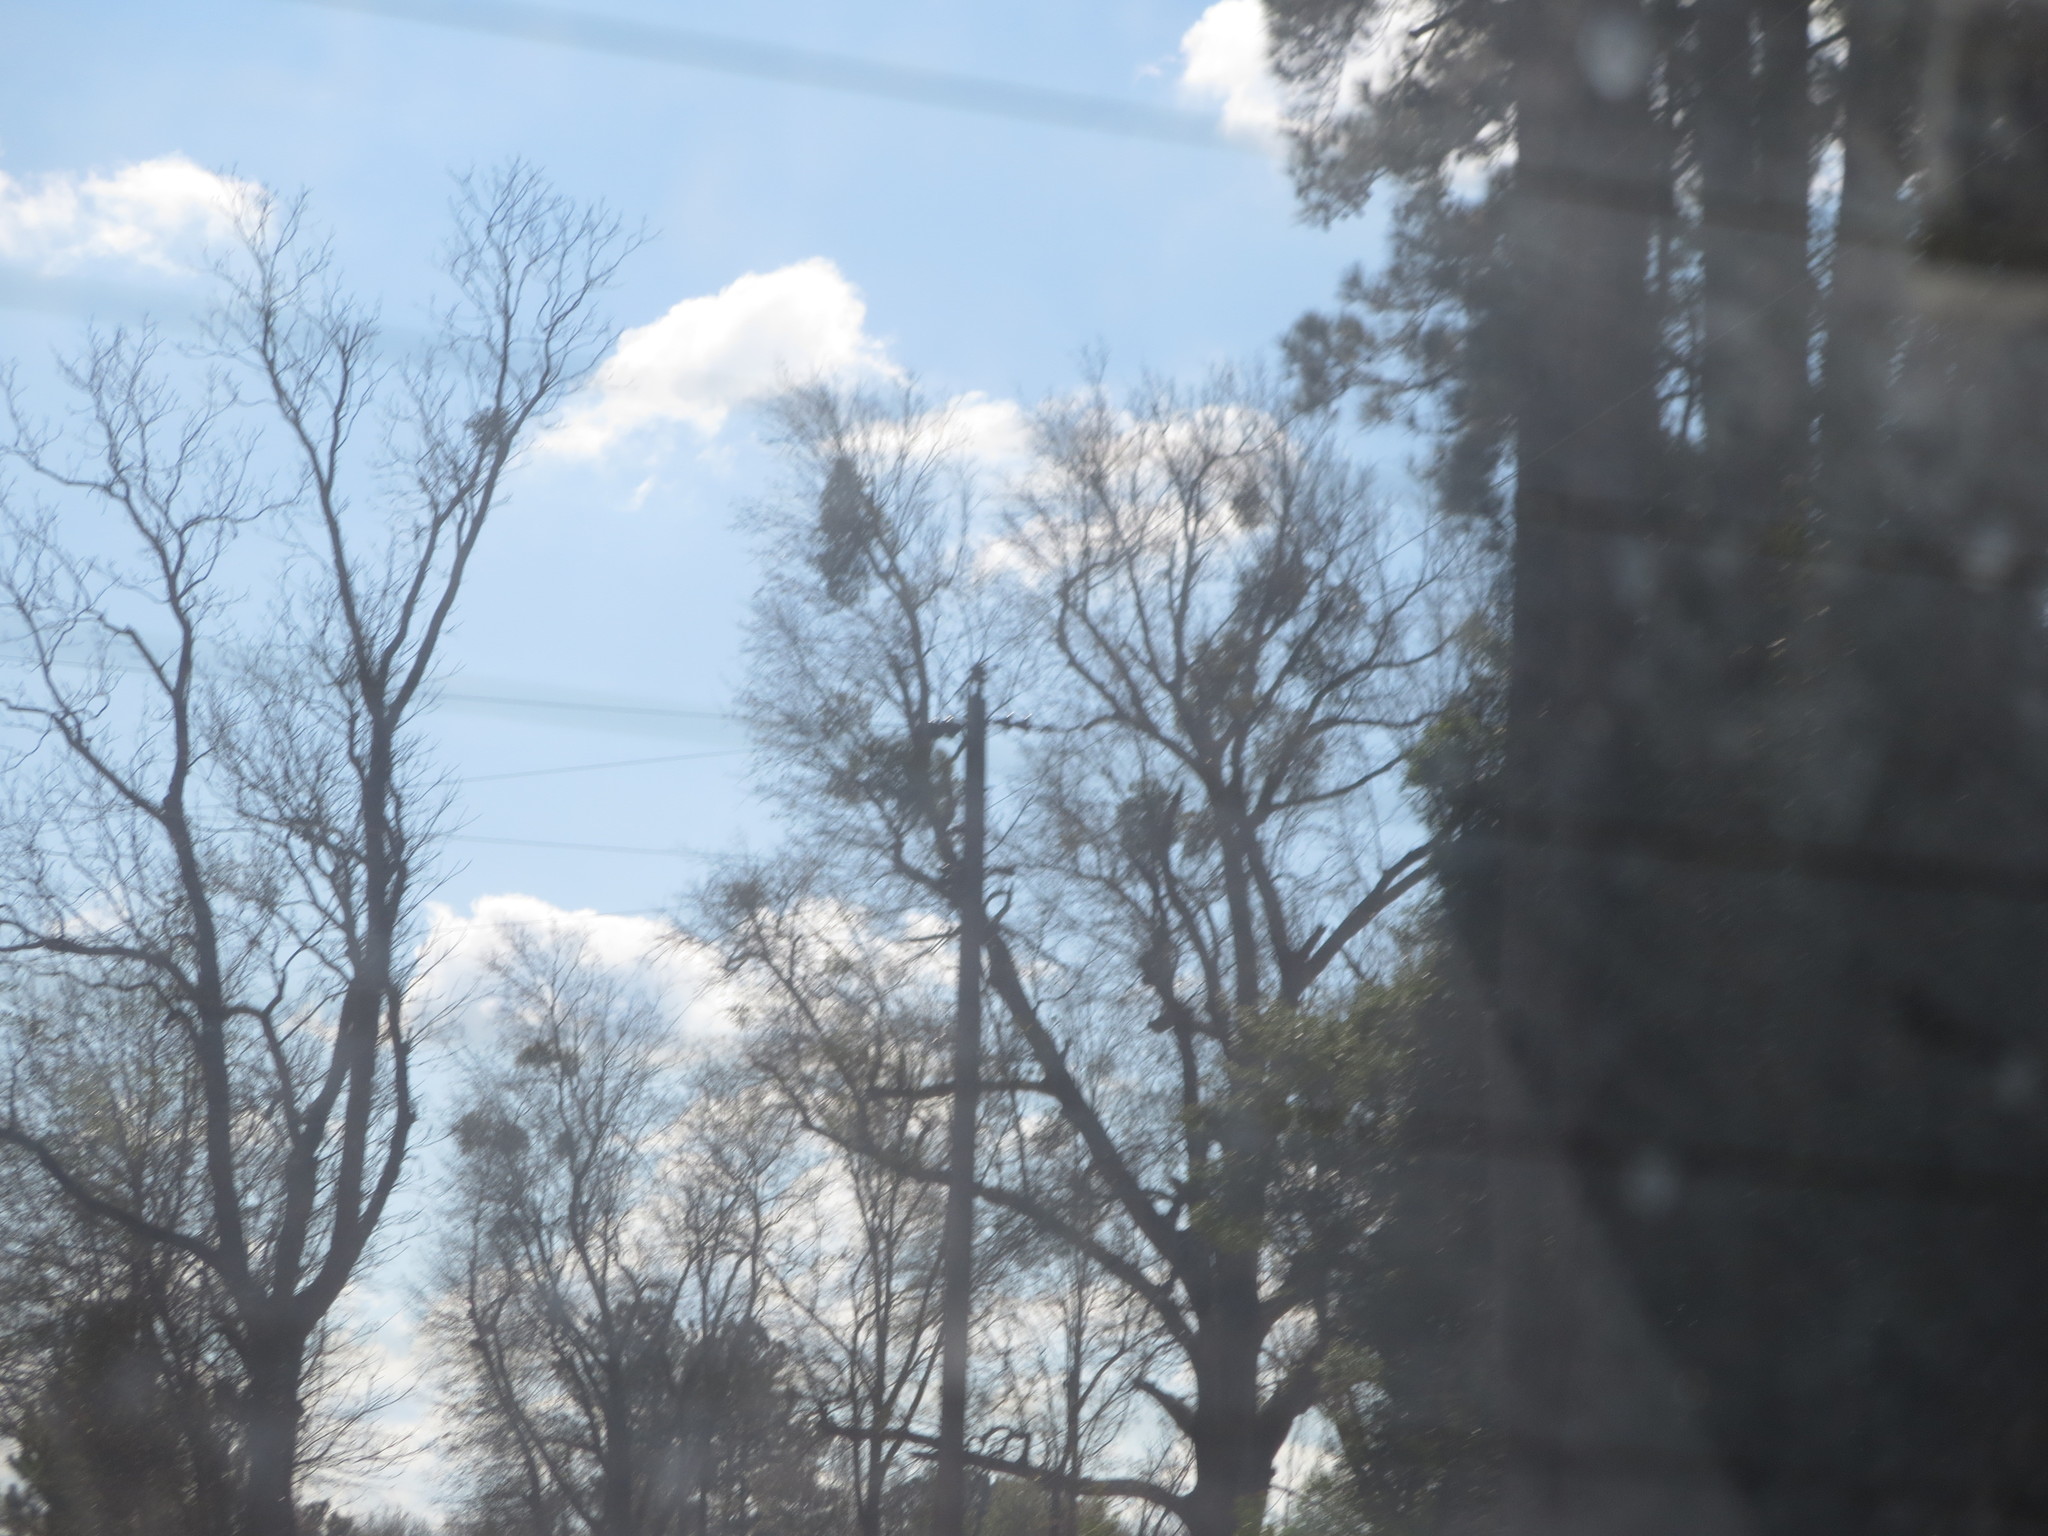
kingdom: Plantae
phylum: Tracheophyta
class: Magnoliopsida
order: Santalales
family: Viscaceae
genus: Phoradendron
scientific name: Phoradendron leucarpum
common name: Pacific mistletoe
